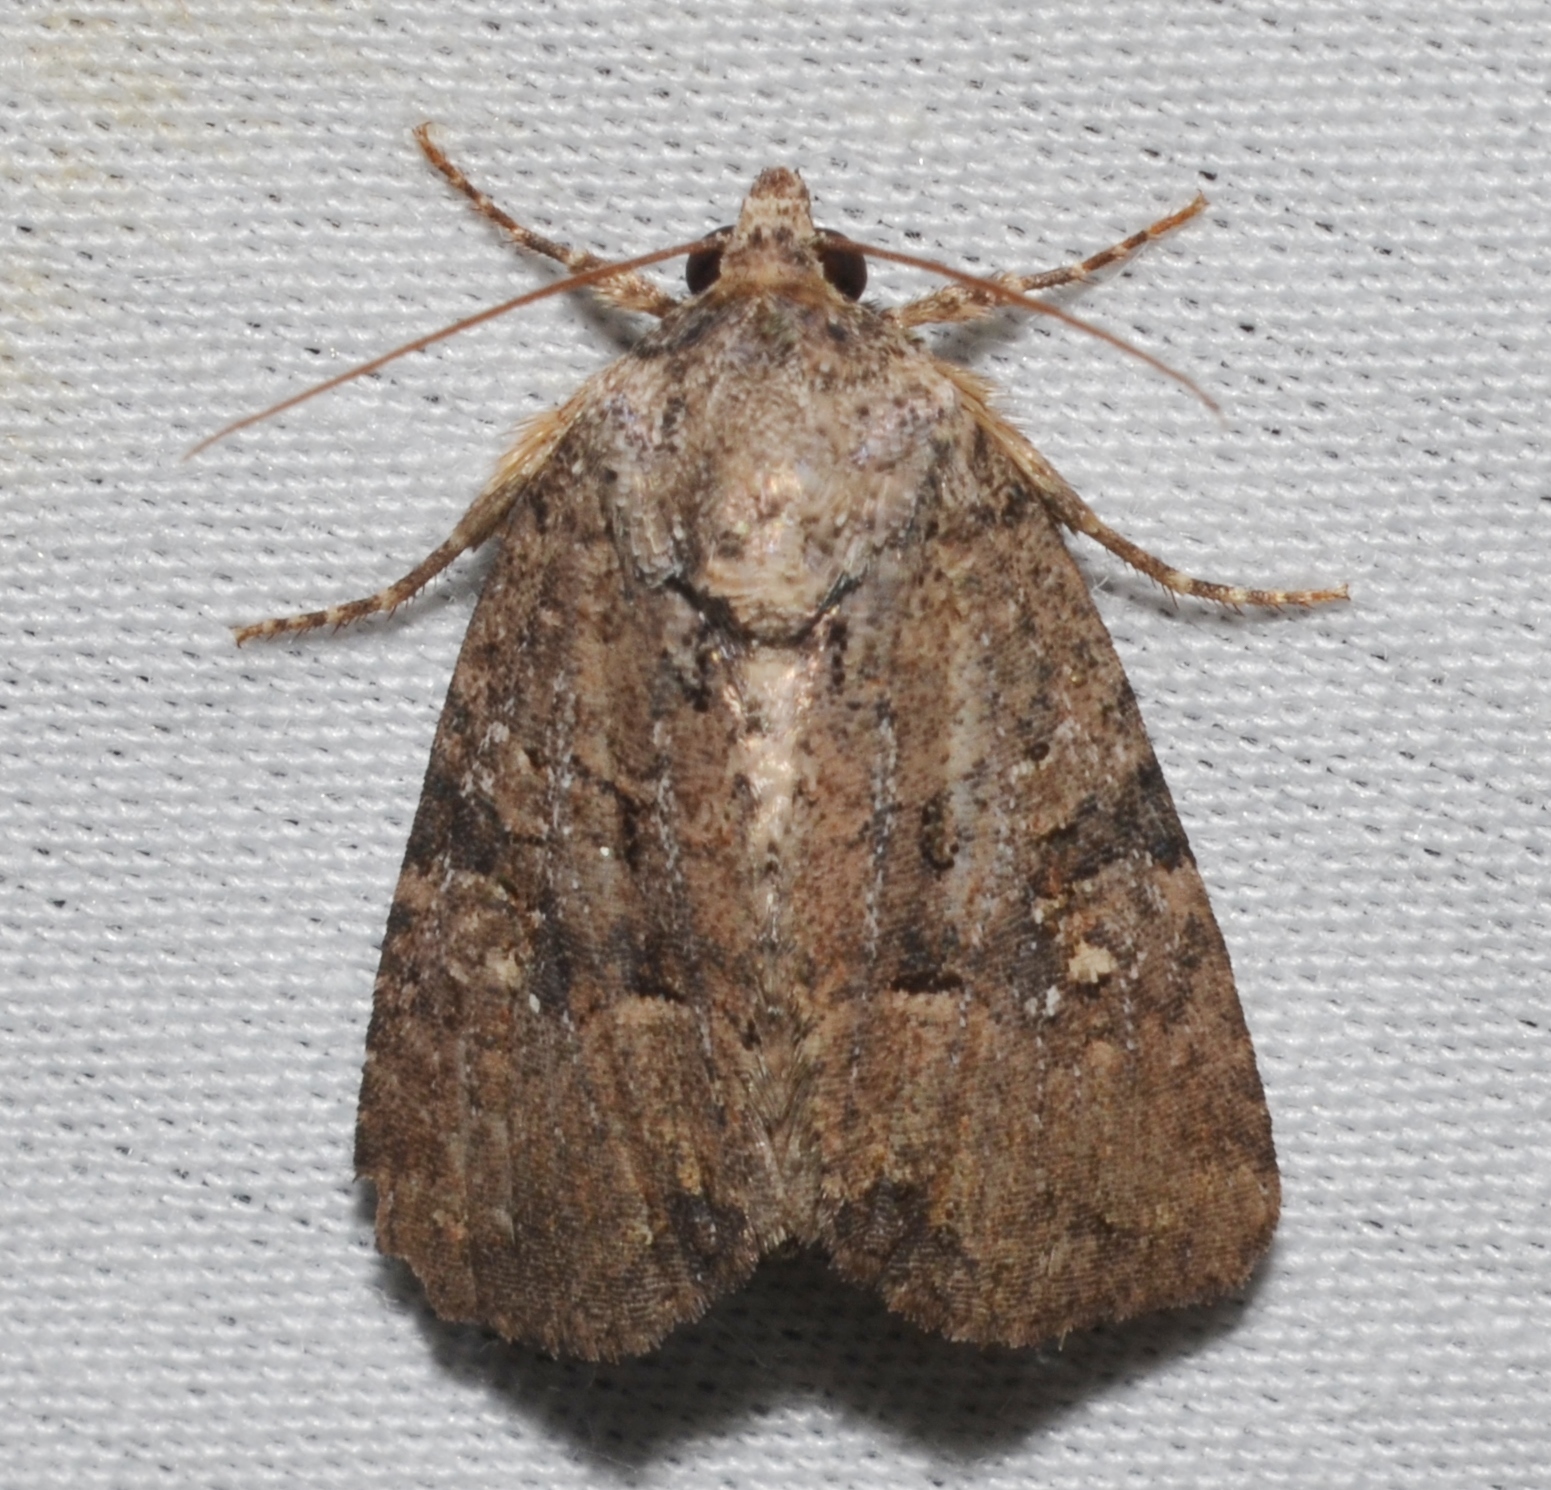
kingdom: Animalia
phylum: Arthropoda
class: Insecta
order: Lepidoptera
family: Noctuidae
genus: Mesapamea
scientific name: Mesapamea fractilinea
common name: Broken-lined brocade moth
